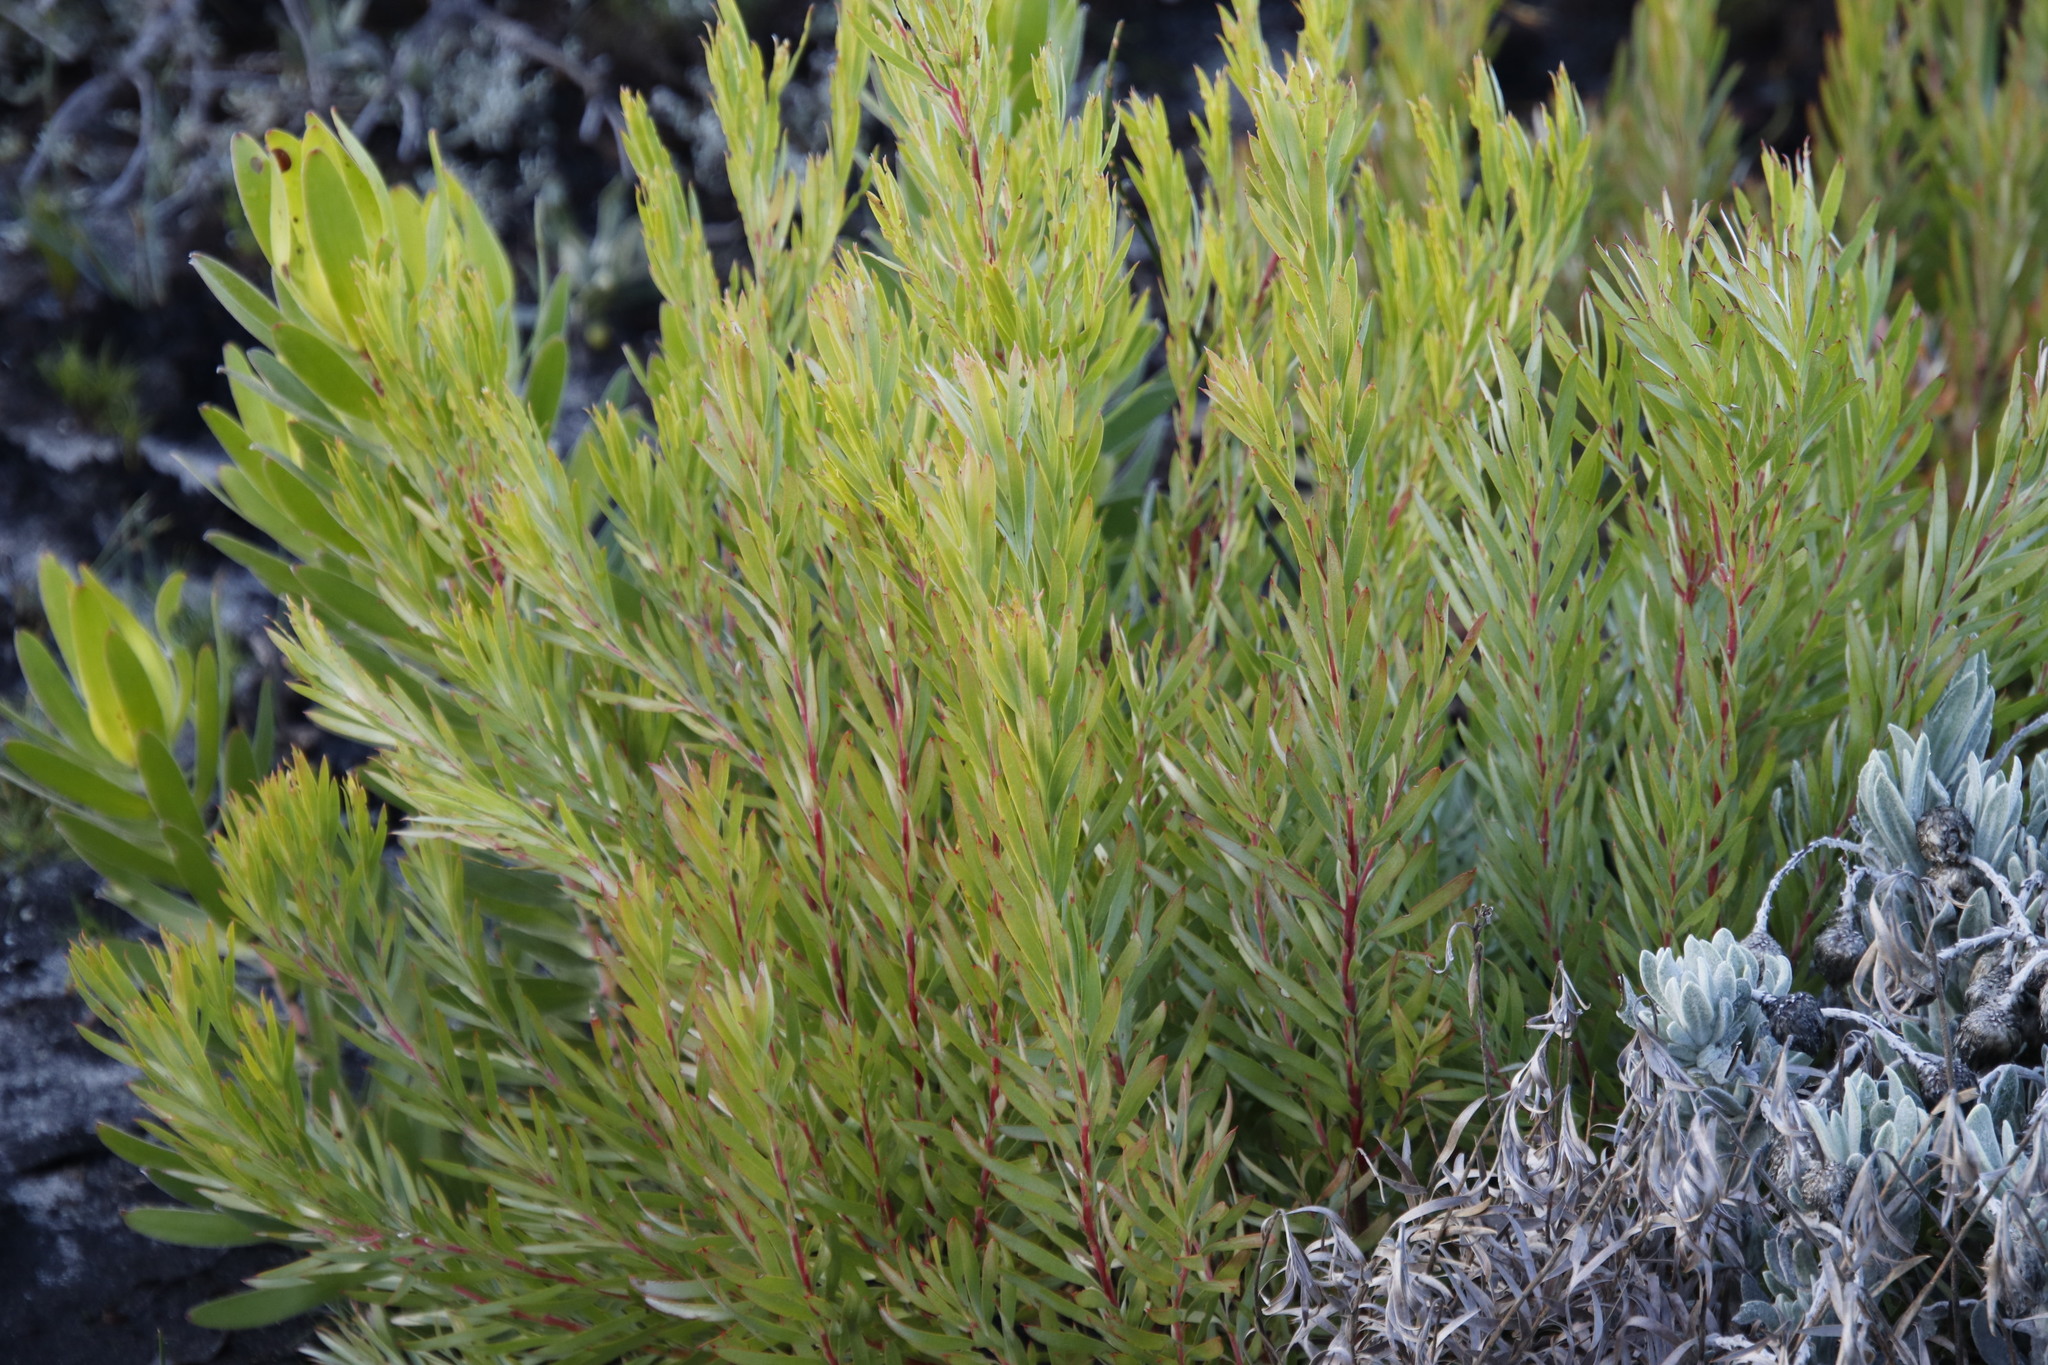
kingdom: Plantae
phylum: Tracheophyta
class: Magnoliopsida
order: Proteales
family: Proteaceae
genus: Leucadendron
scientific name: Leucadendron xanthoconus
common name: Sickle-leaf conebush
